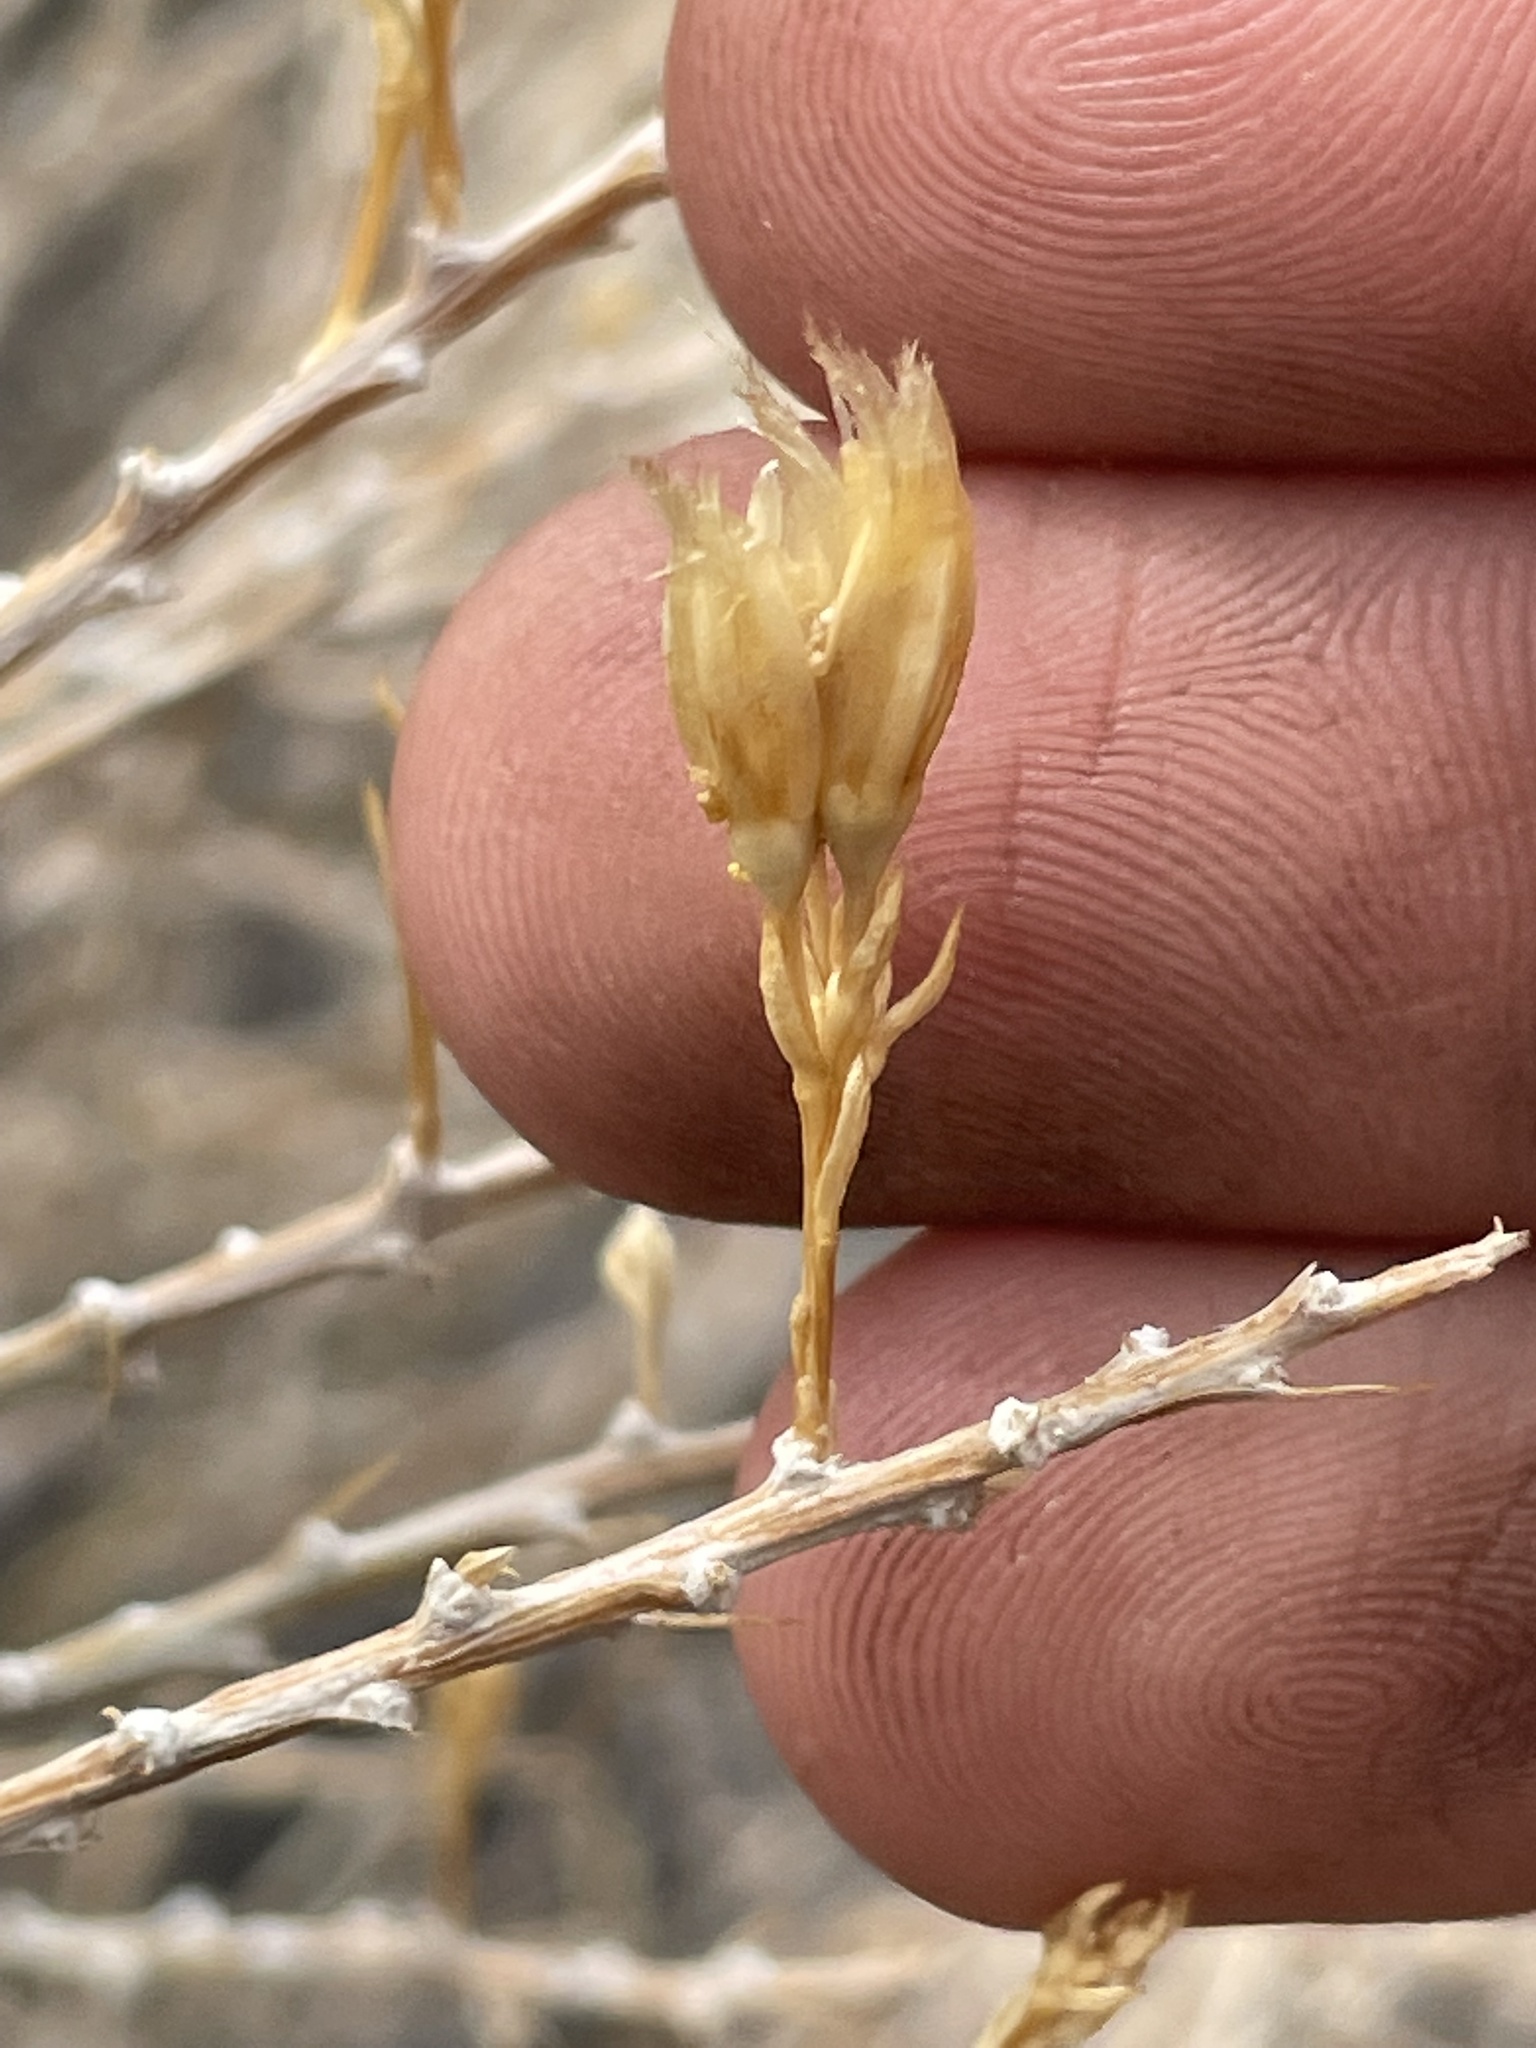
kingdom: Plantae
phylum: Tracheophyta
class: Magnoliopsida
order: Asterales
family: Asteraceae
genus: Tetradymia
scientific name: Tetradymia glabrata
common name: Smooth tetradymia
